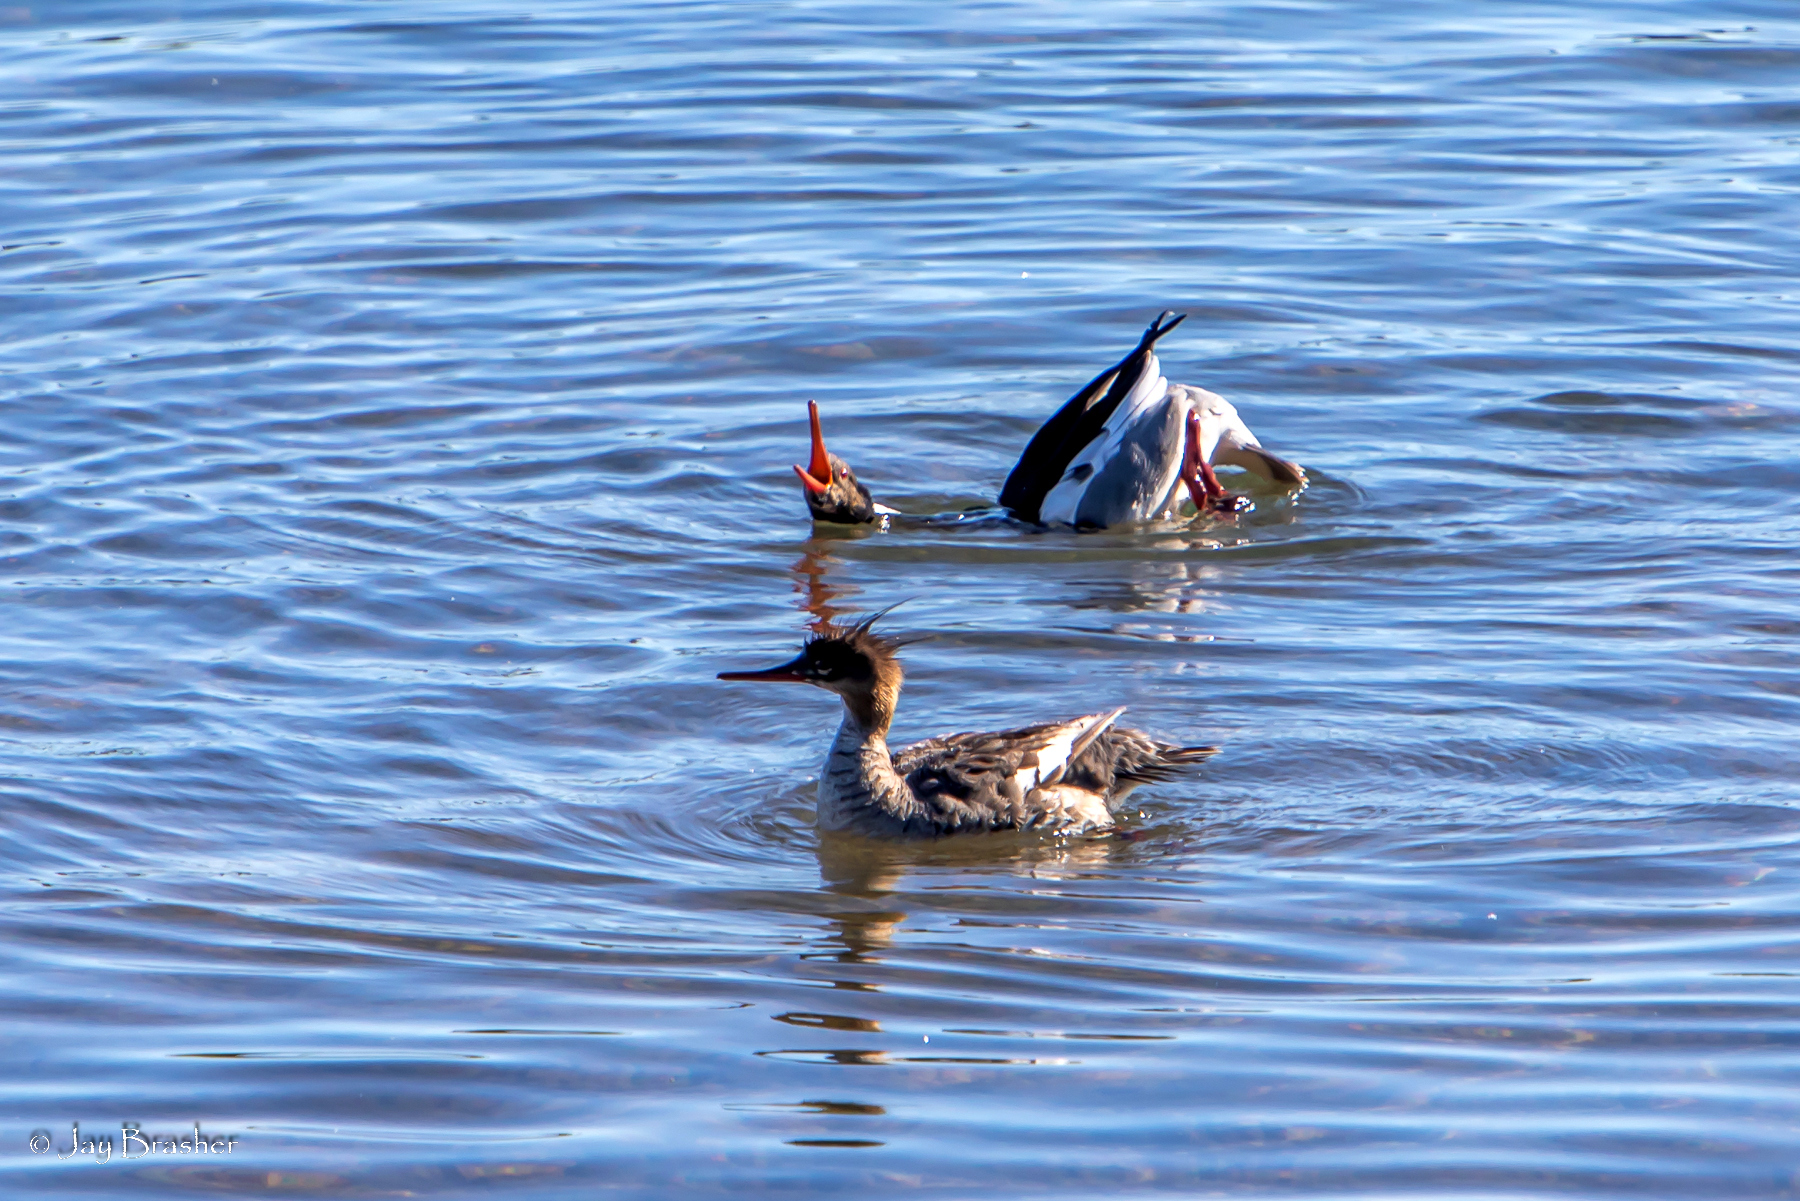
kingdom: Animalia
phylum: Chordata
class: Aves
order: Anseriformes
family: Anatidae
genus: Mergus
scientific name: Mergus serrator
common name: Red-breasted merganser
